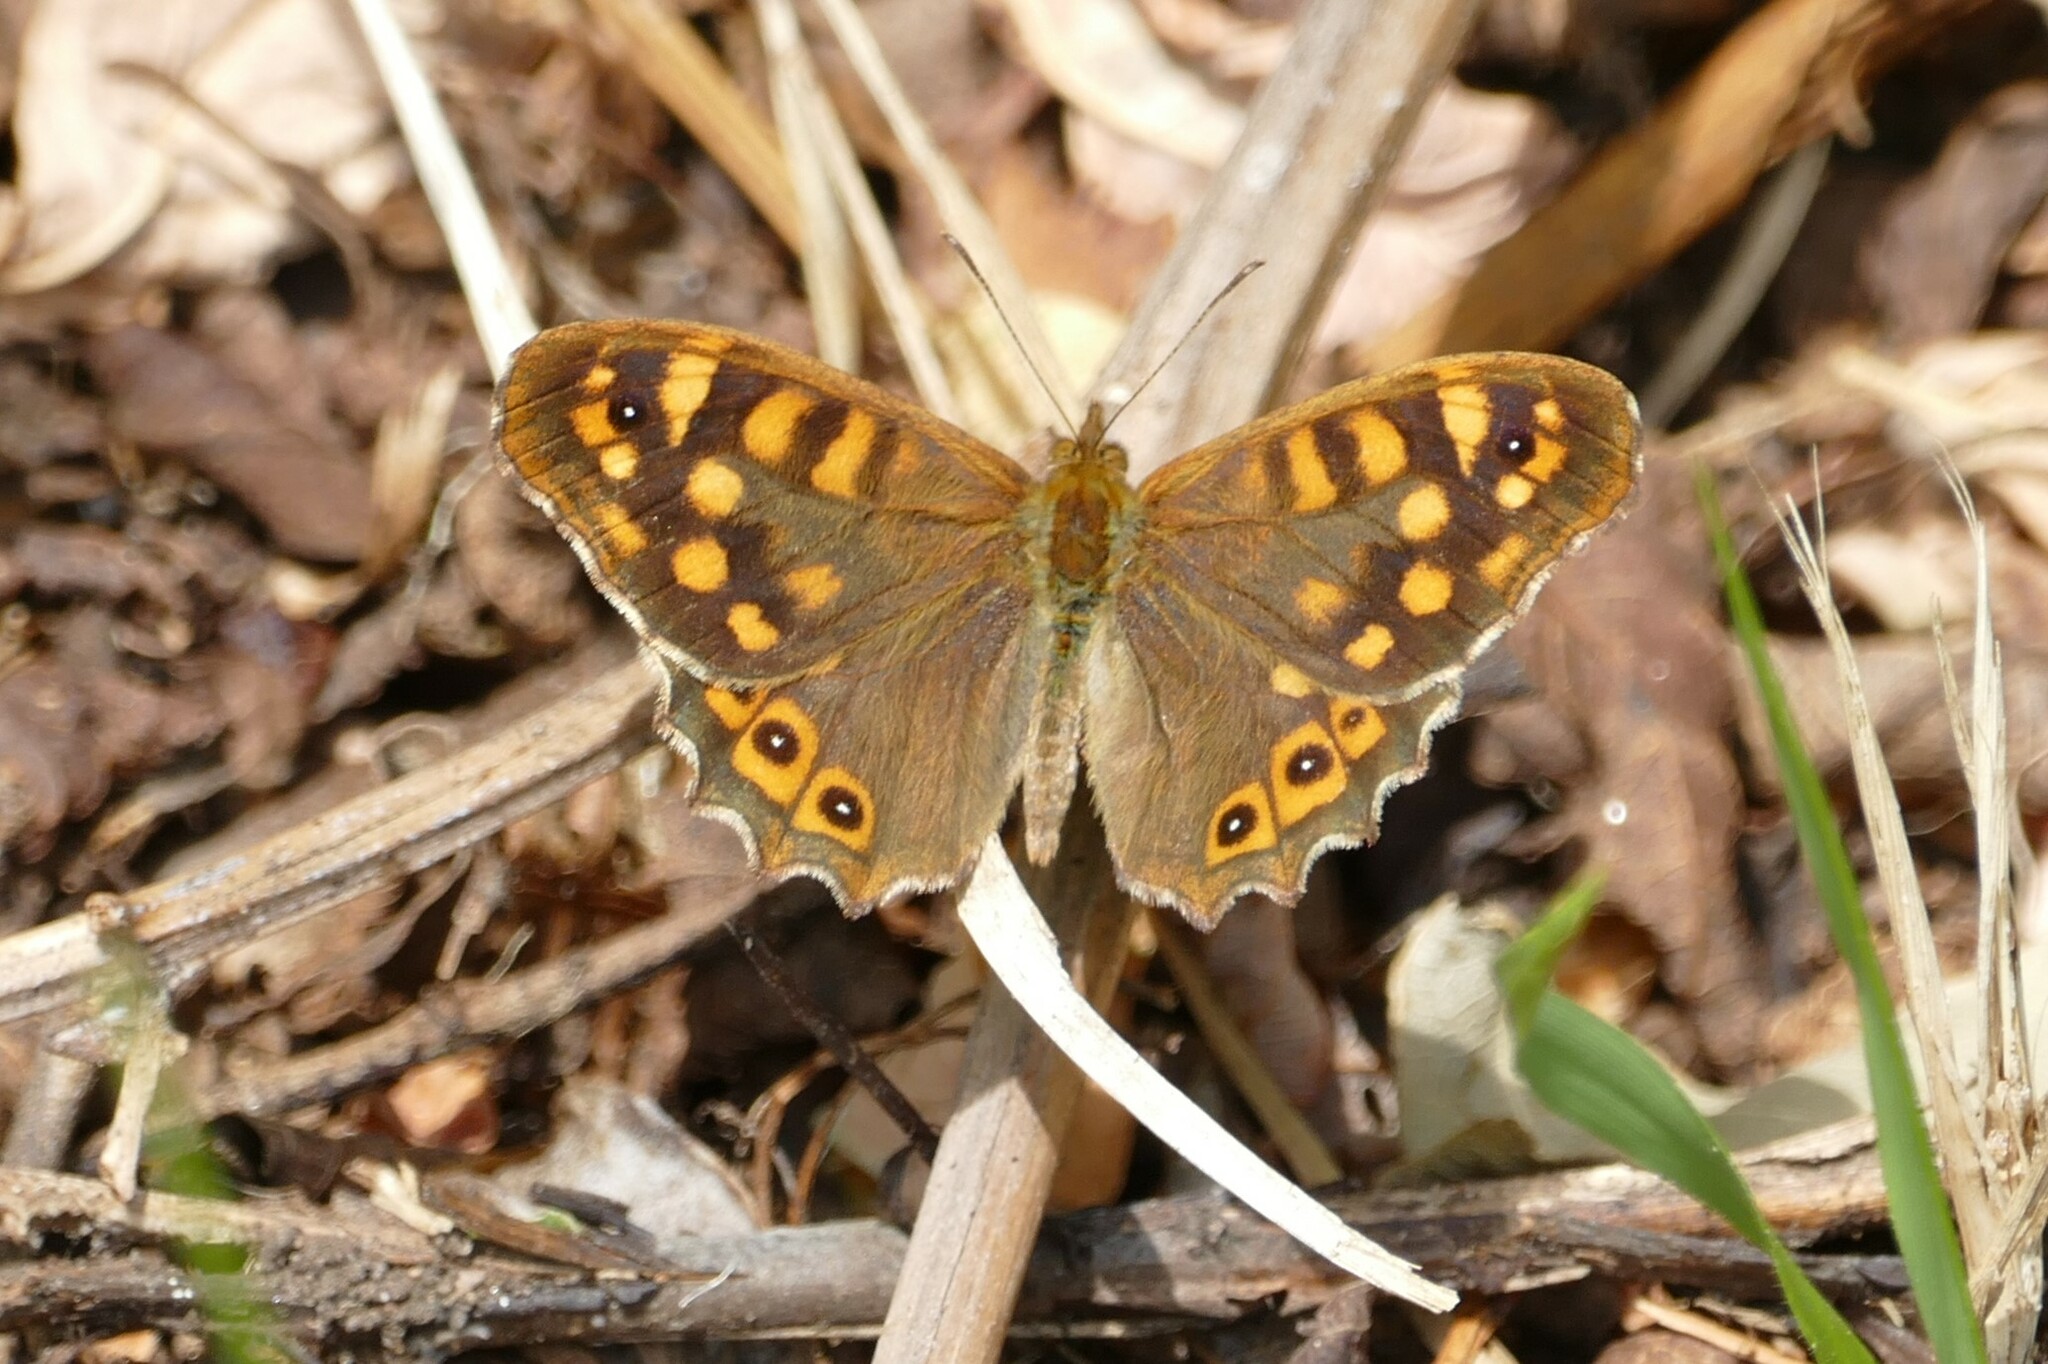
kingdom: Animalia
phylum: Arthropoda
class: Insecta
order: Lepidoptera
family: Nymphalidae
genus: Pararge
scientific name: Pararge aegeria
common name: Speckled wood
